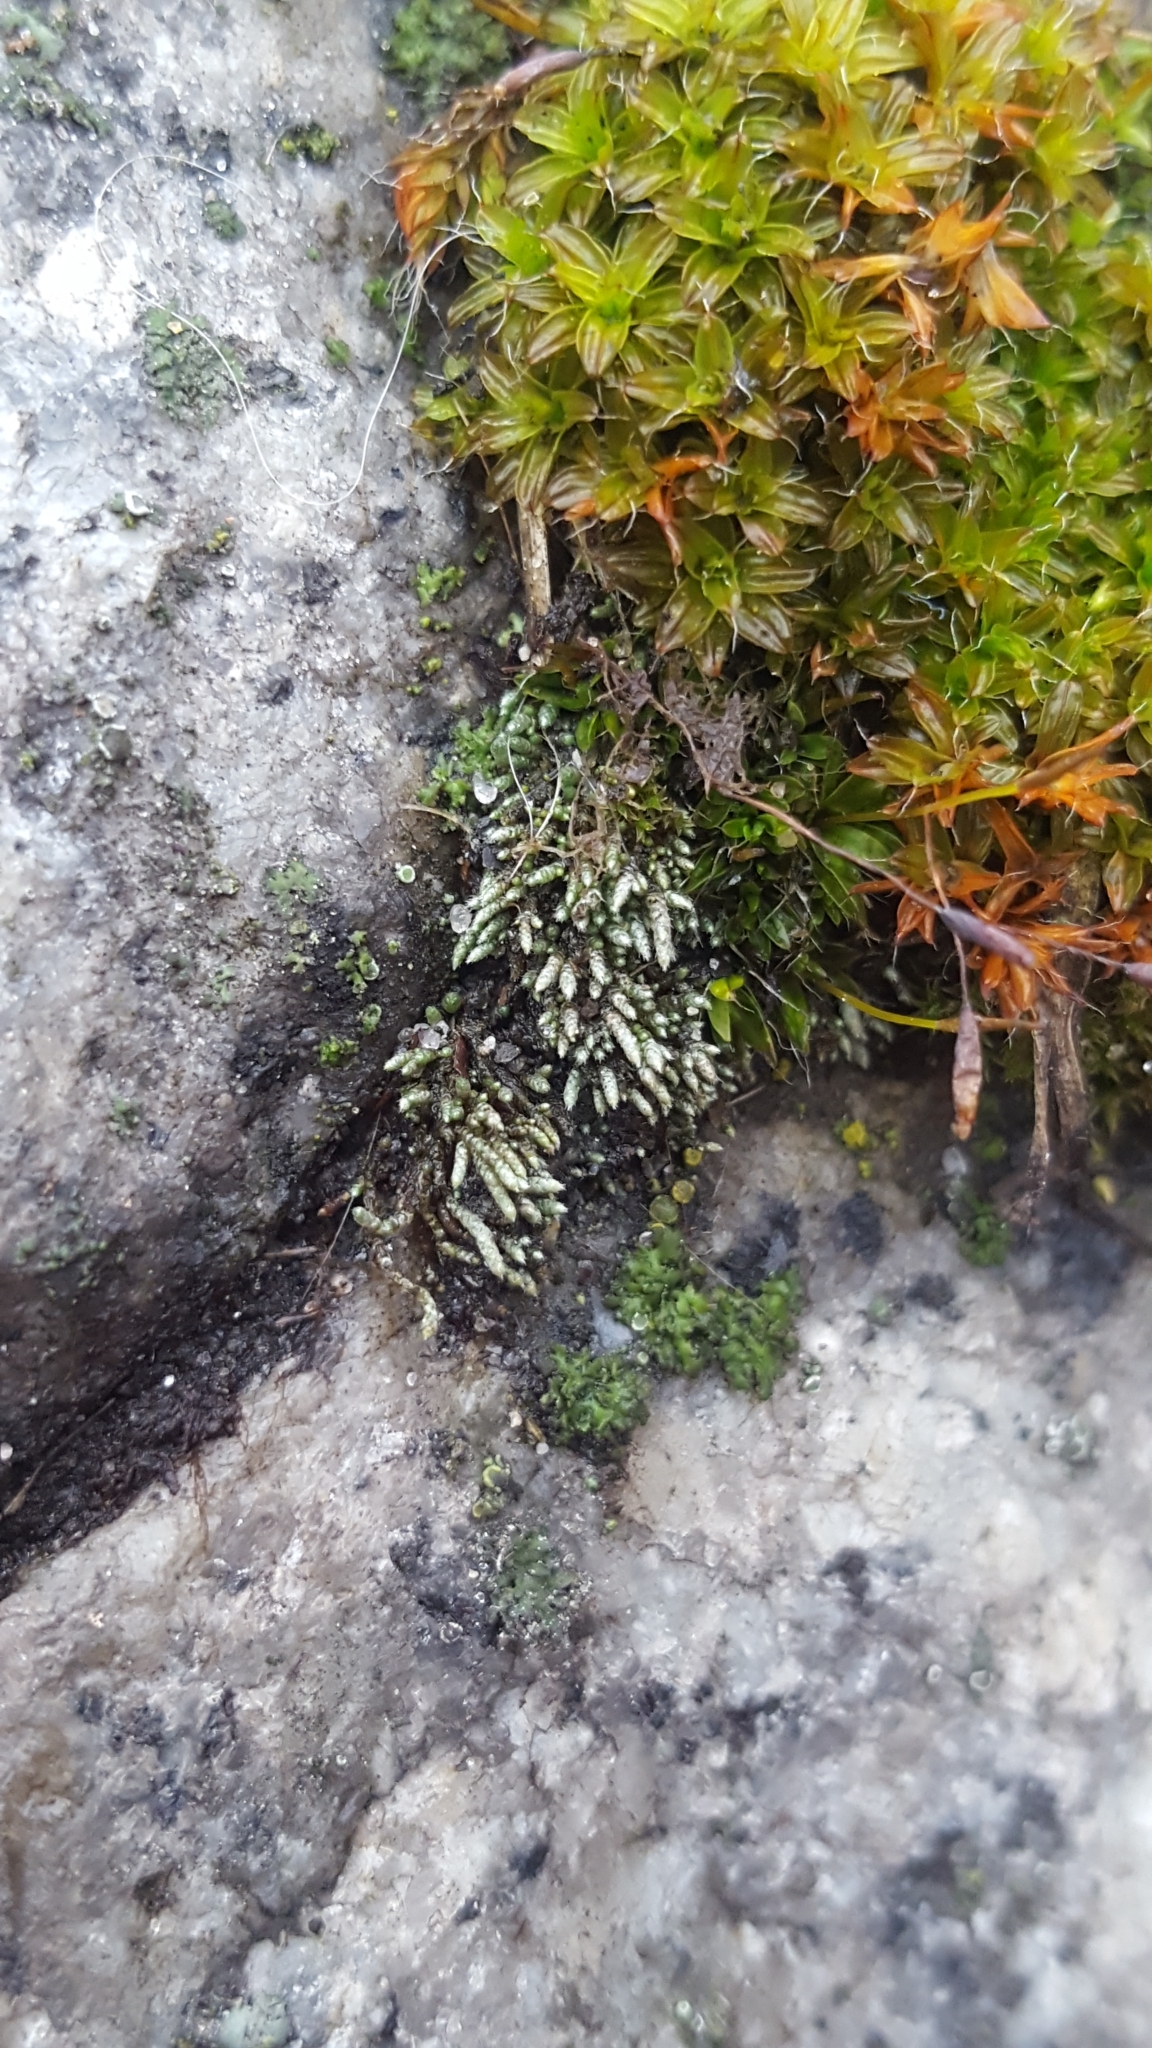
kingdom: Plantae
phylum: Bryophyta
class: Bryopsida
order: Bryales
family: Bryaceae
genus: Bryum
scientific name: Bryum argenteum
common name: Silver-moss
